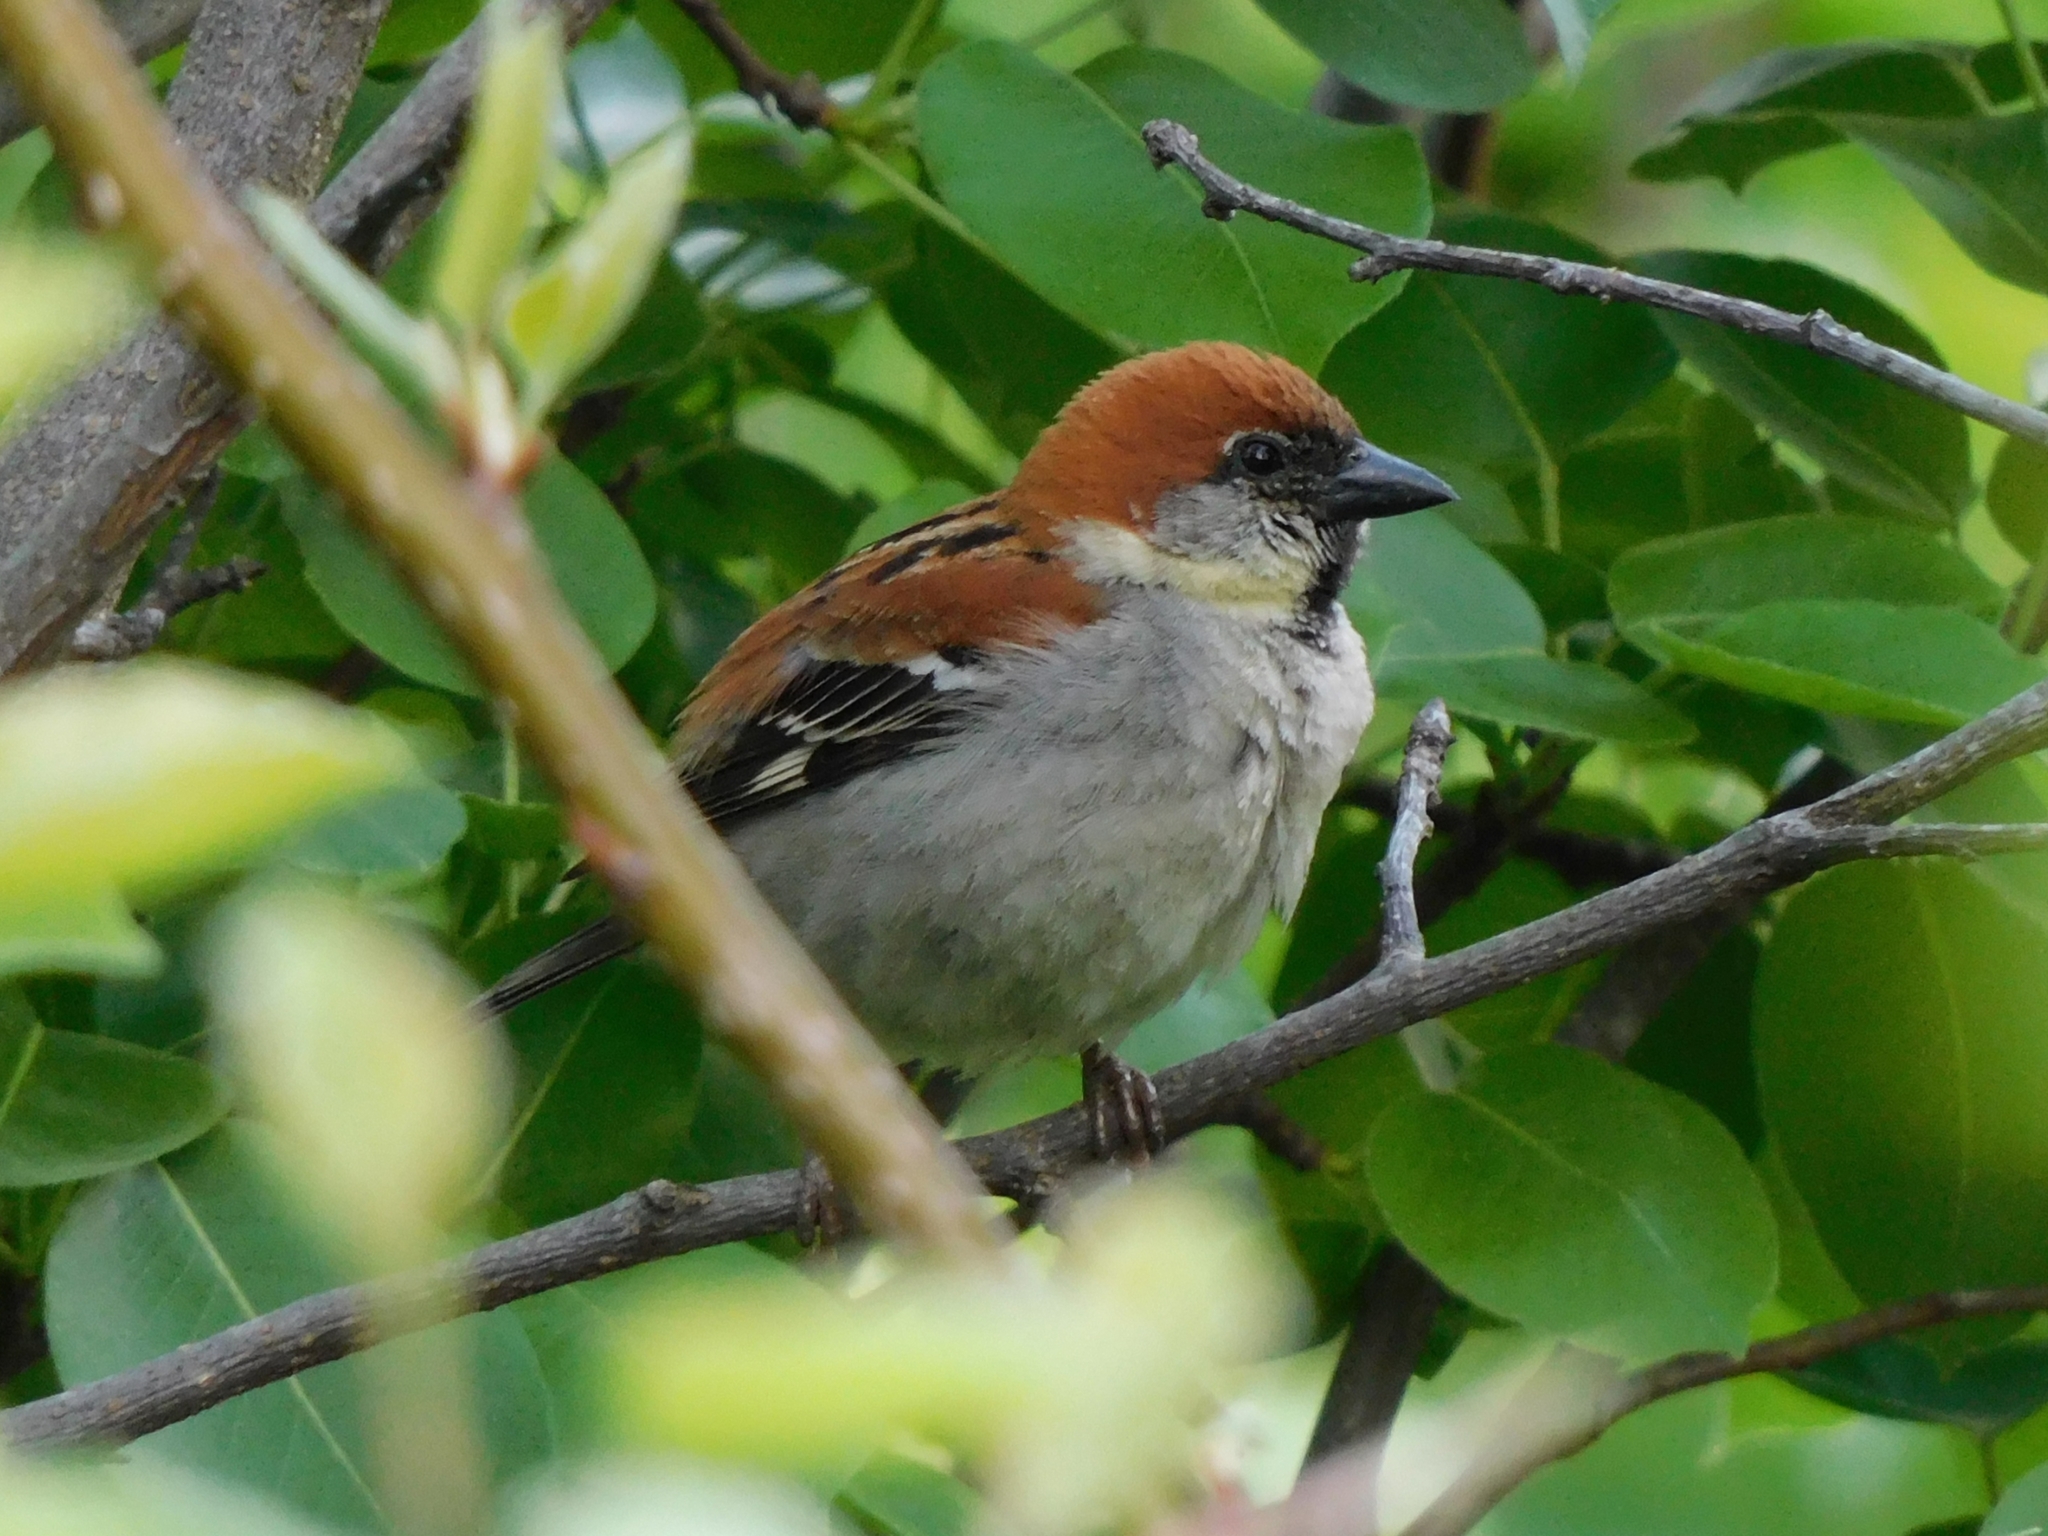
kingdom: Animalia
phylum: Chordata
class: Aves
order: Passeriformes
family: Passeridae
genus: Passer
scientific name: Passer cinnamomeus
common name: Russet sparrow
